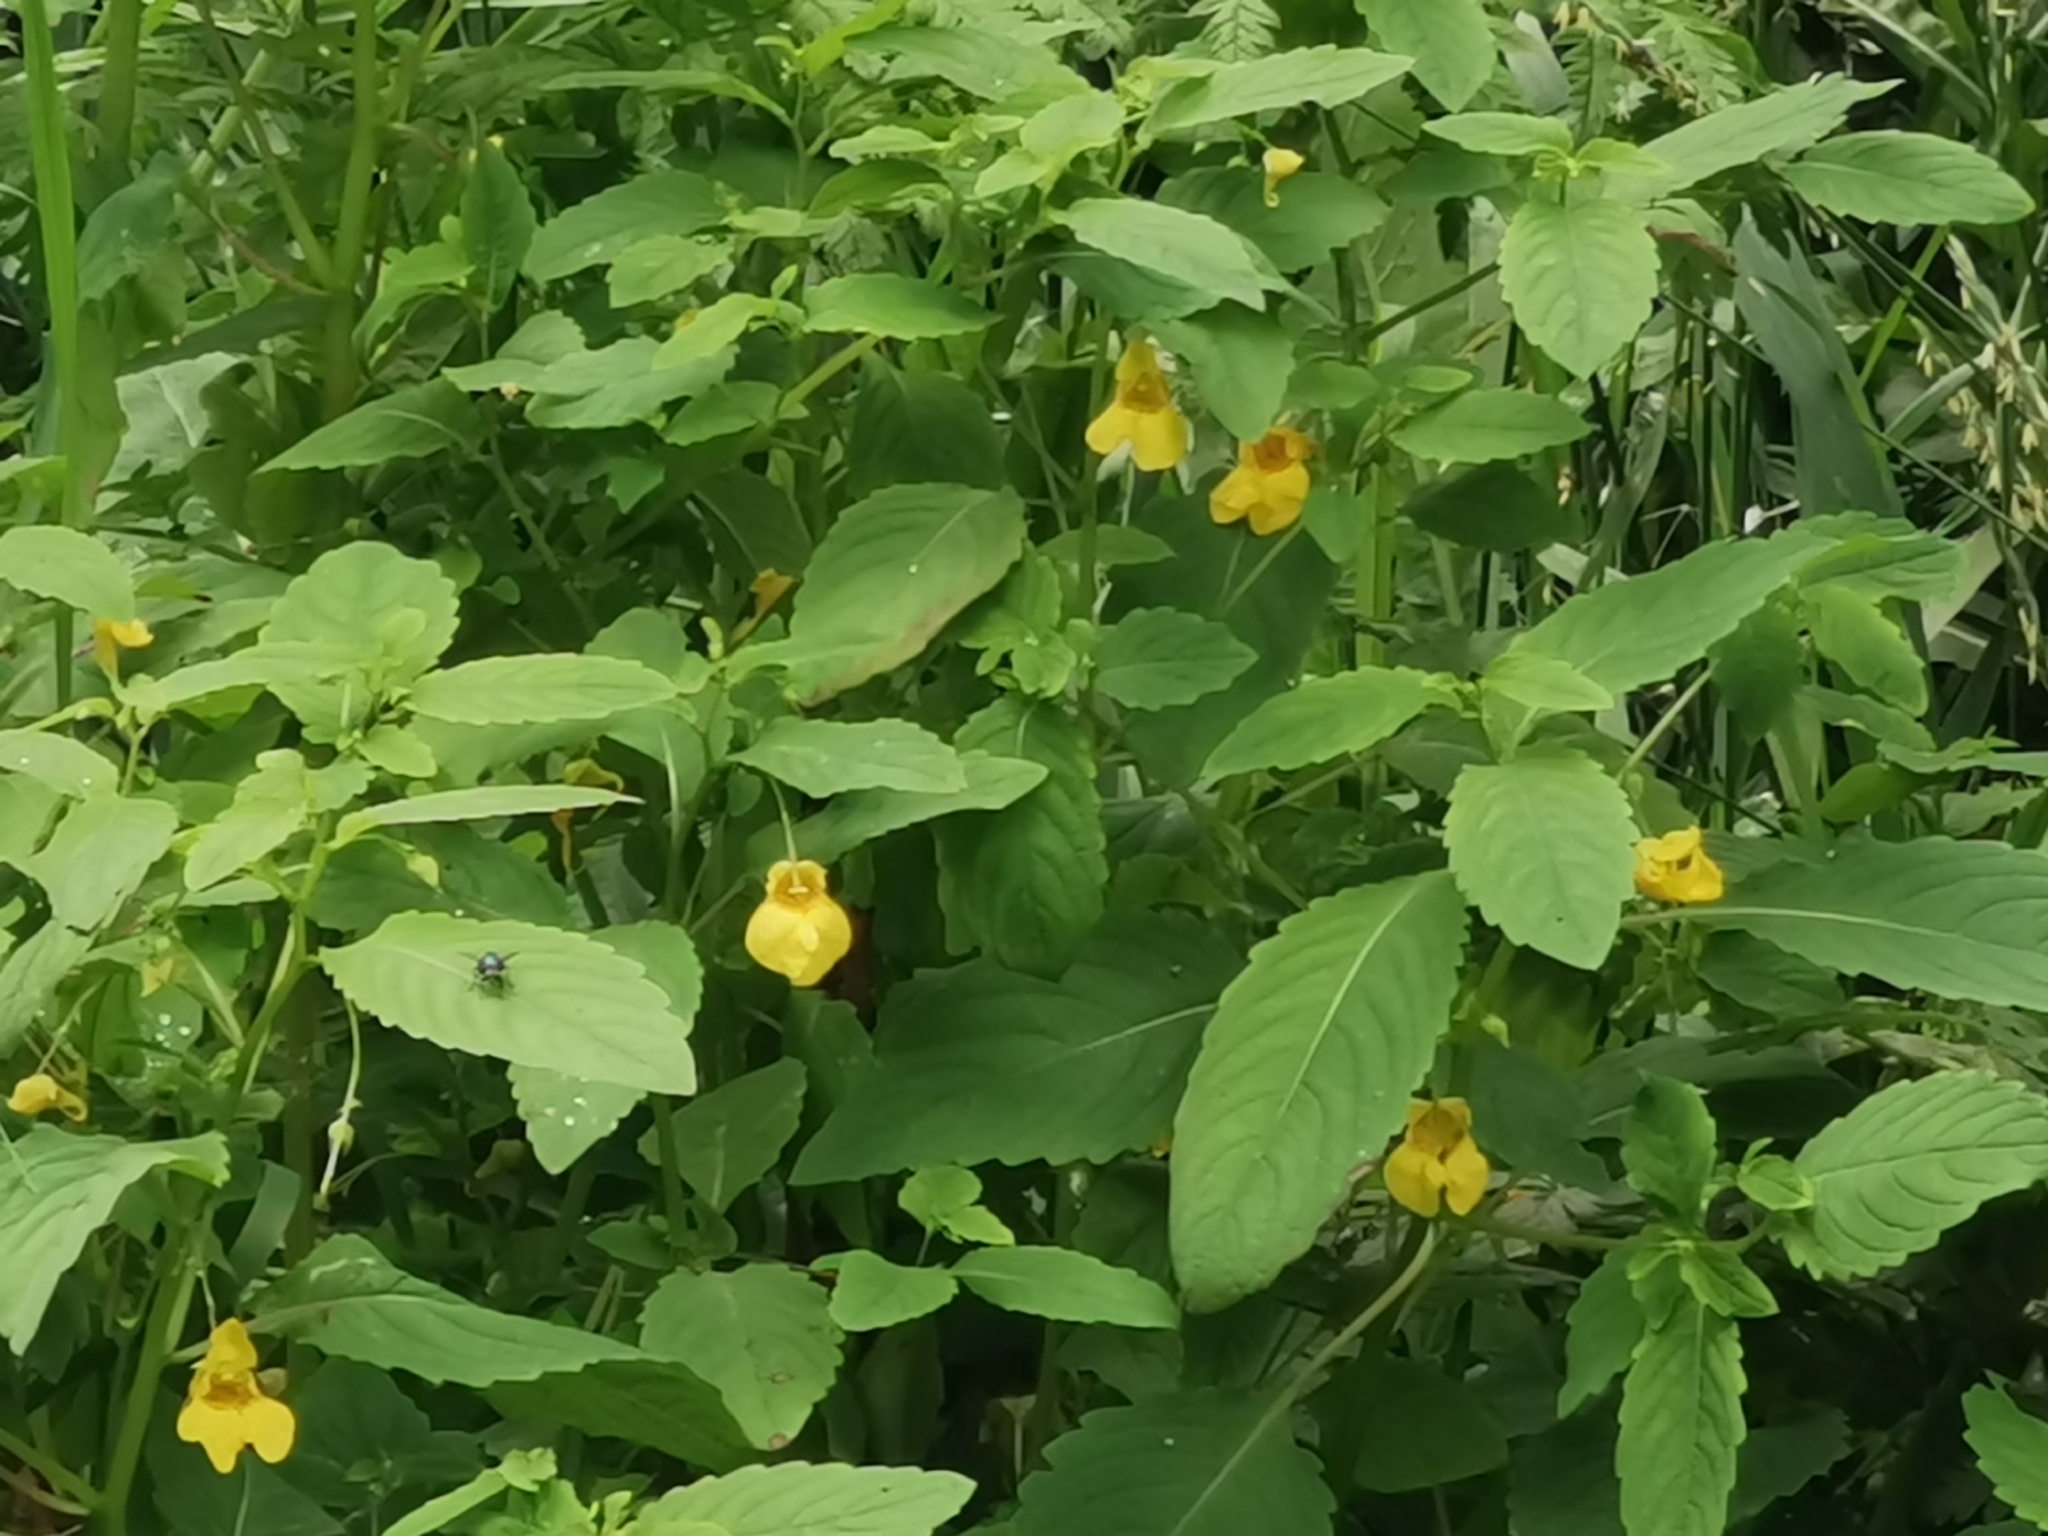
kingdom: Plantae
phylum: Tracheophyta
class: Magnoliopsida
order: Ericales
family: Balsaminaceae
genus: Impatiens
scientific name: Impatiens noli-tangere
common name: Touch-me-not balsam
